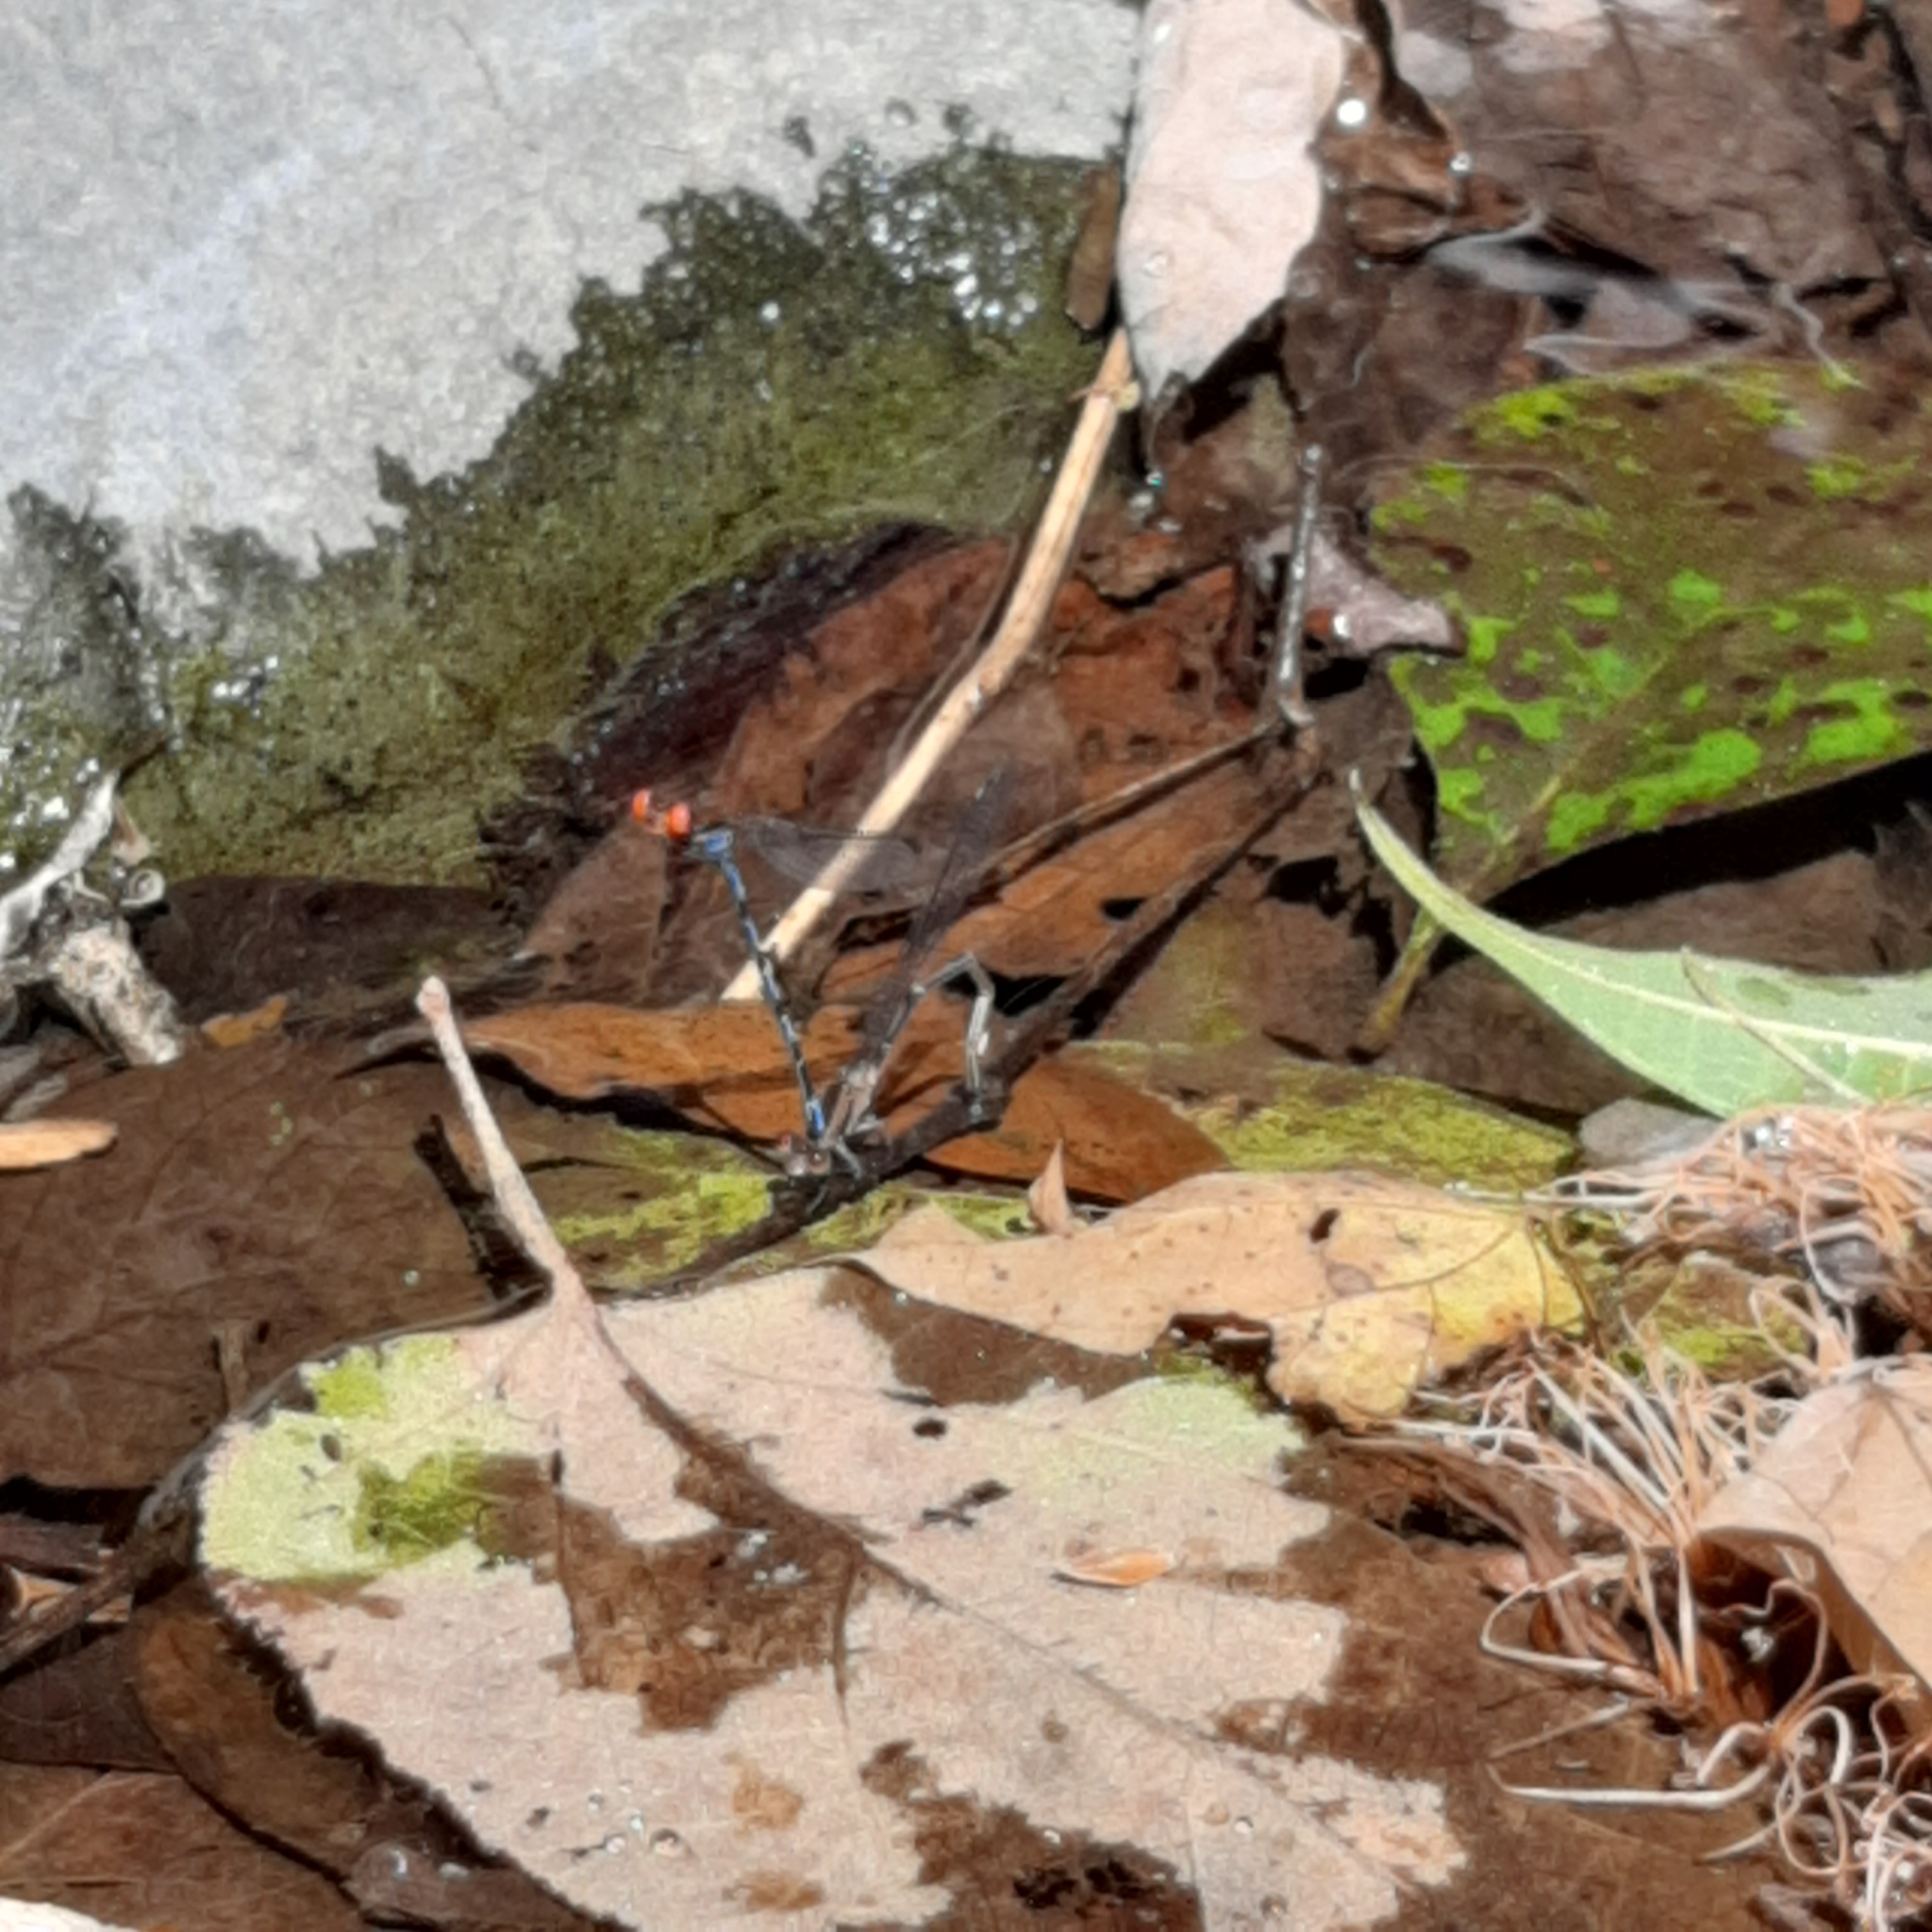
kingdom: Animalia
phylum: Arthropoda
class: Insecta
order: Odonata
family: Coenagrionidae
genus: Argia
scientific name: Argia oenea
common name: Fiery-eyed dancer
